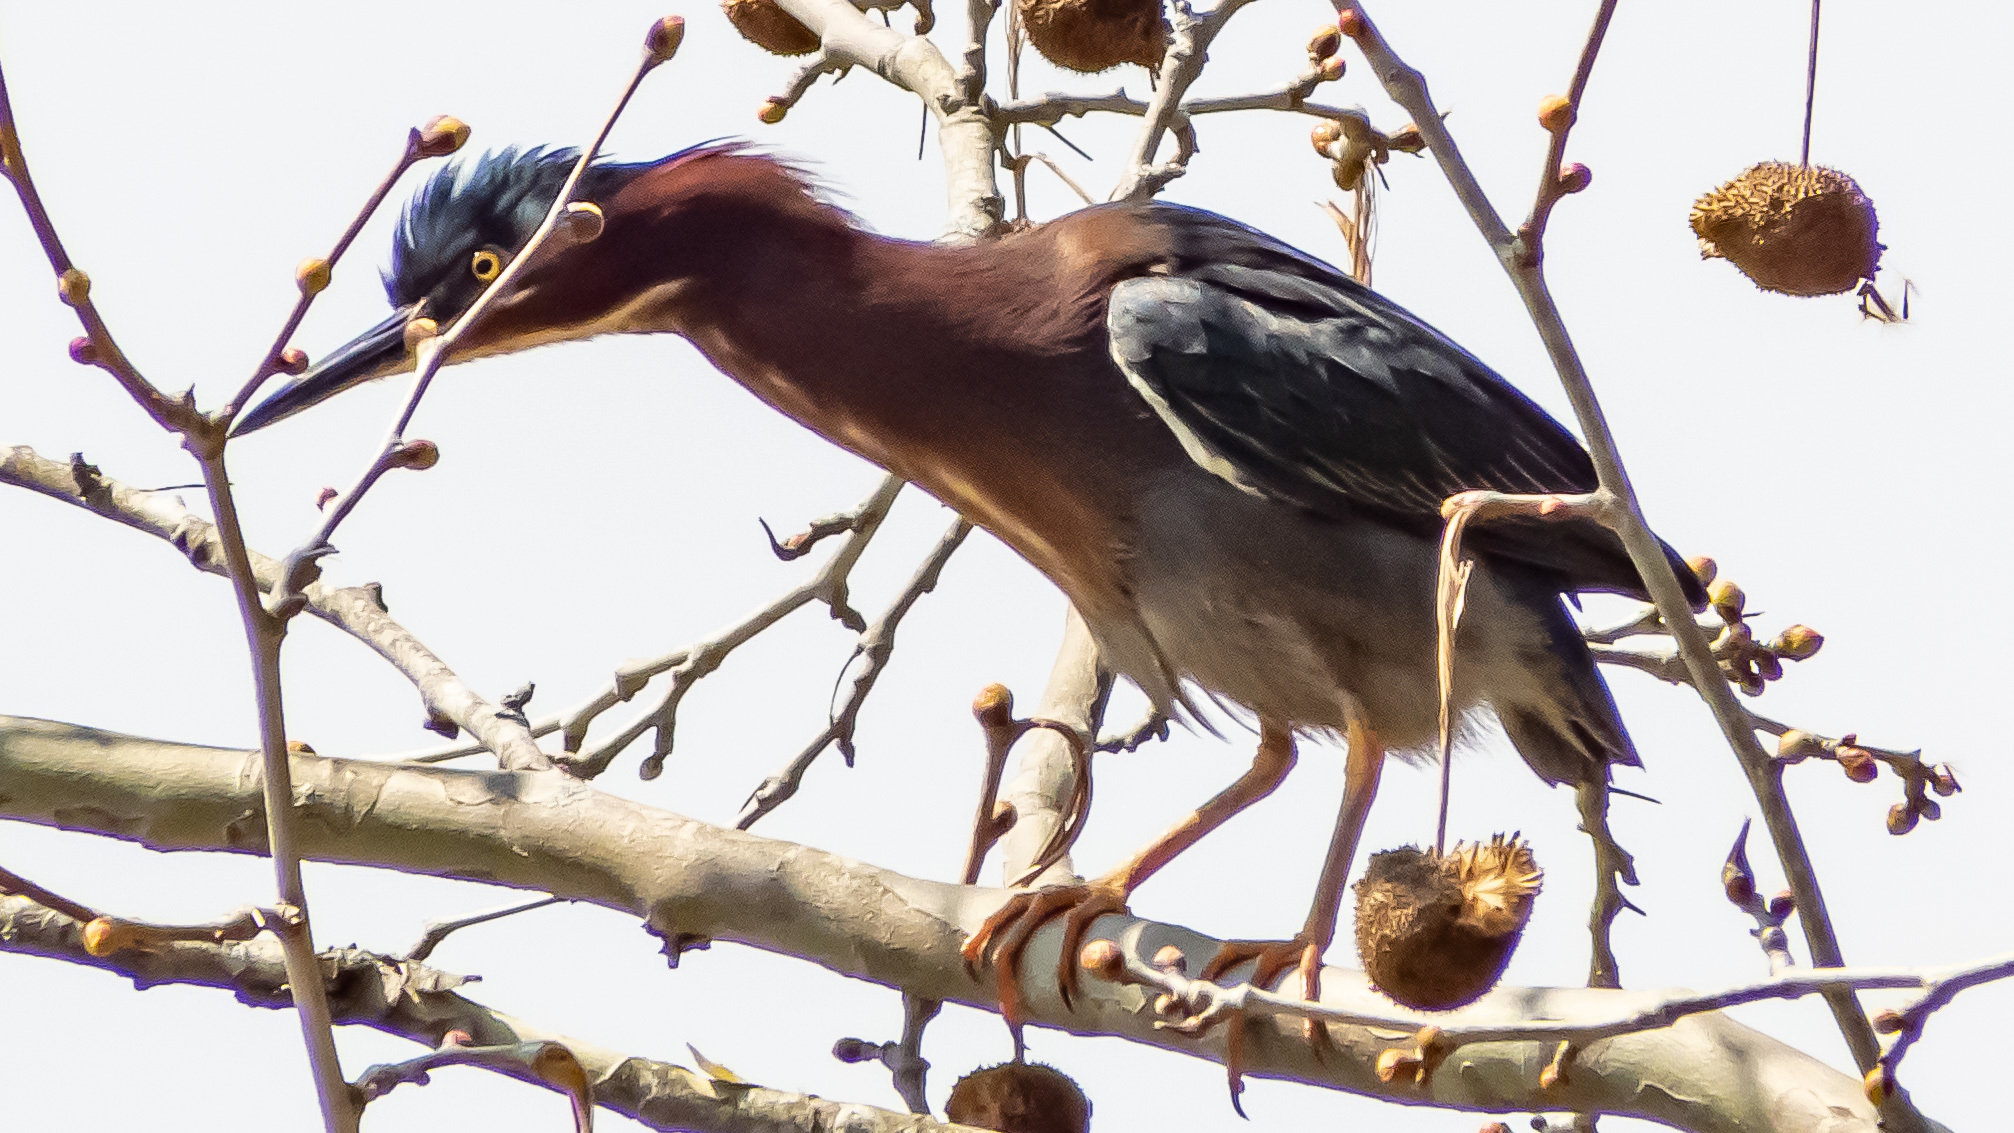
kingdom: Animalia
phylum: Chordata
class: Aves
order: Pelecaniformes
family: Ardeidae
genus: Butorides
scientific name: Butorides virescens
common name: Green heron
